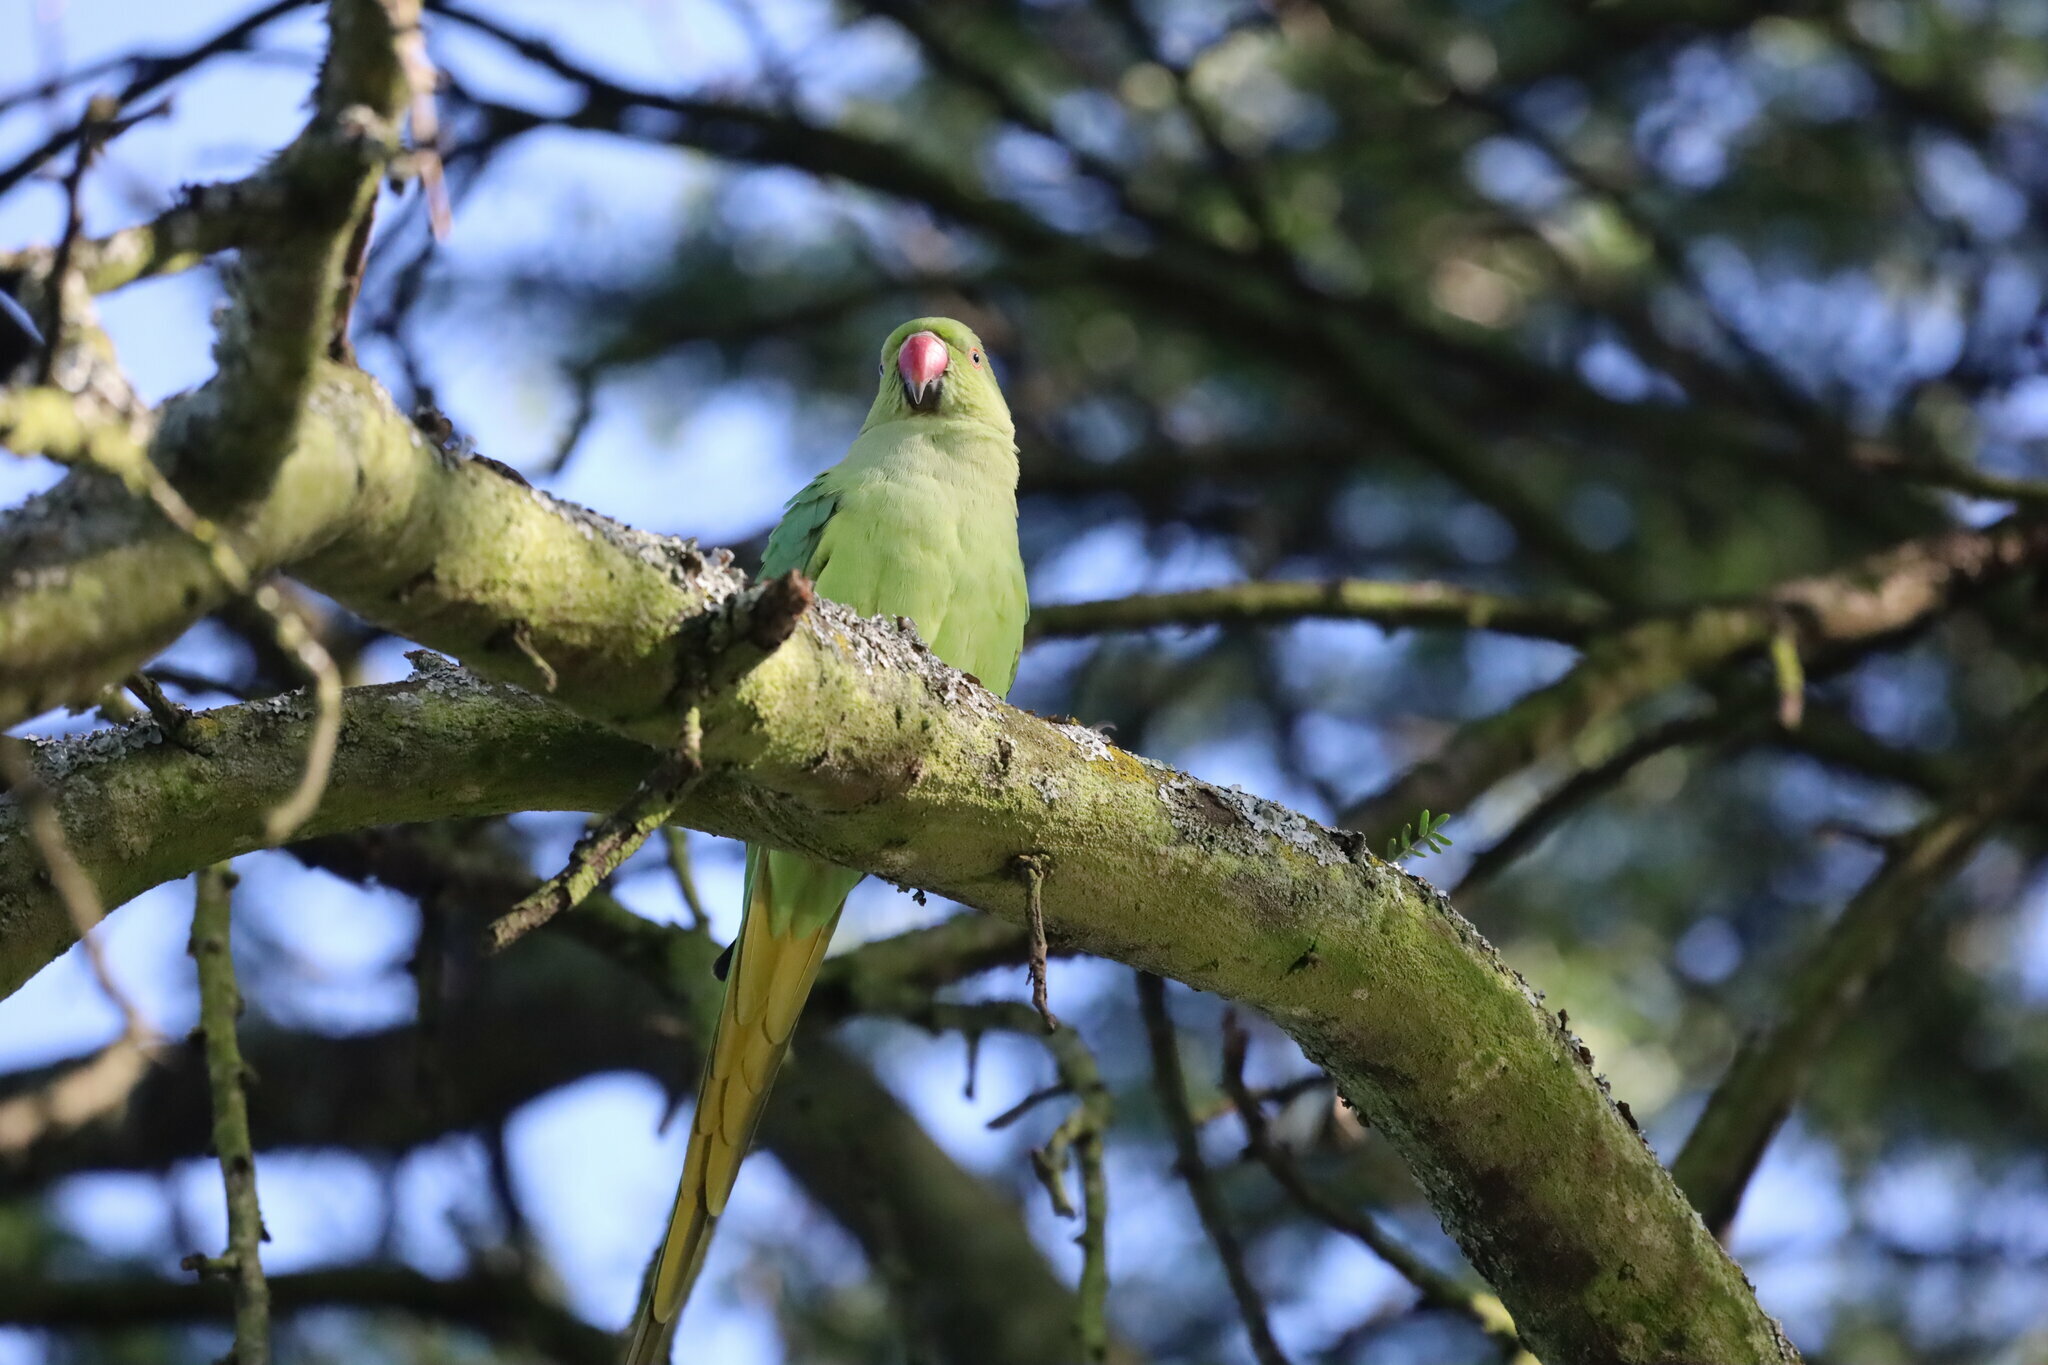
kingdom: Animalia
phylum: Chordata
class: Aves
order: Psittaciformes
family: Psittacidae
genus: Psittacula
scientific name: Psittacula krameri
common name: Rose-ringed parakeet
